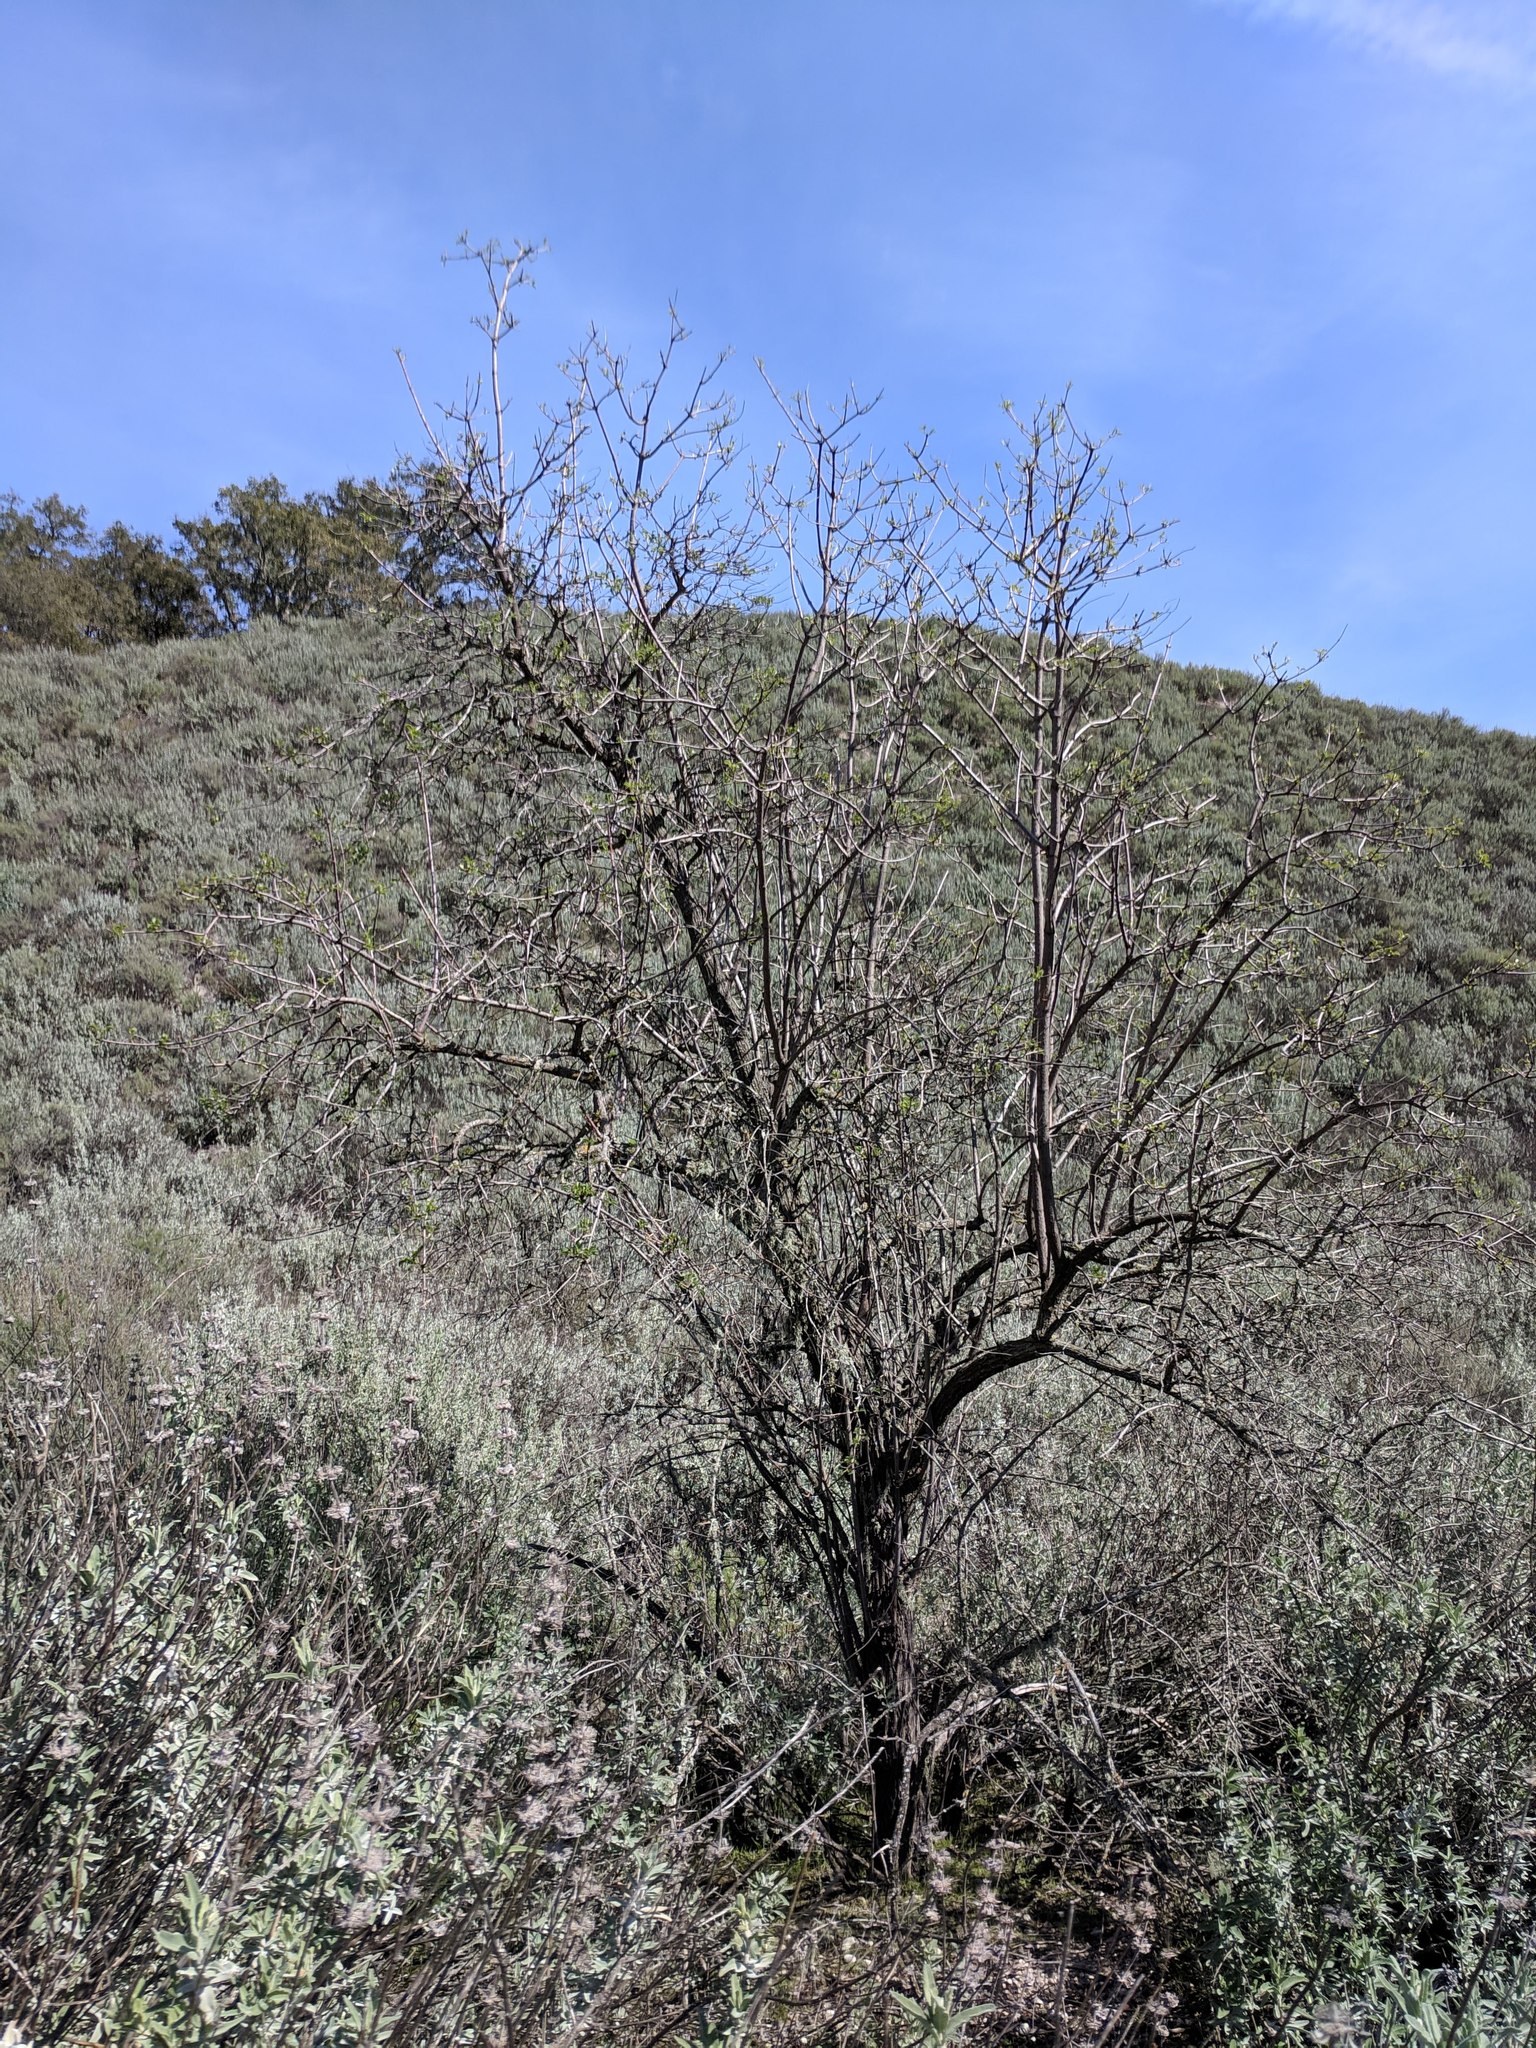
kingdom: Plantae
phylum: Tracheophyta
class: Magnoliopsida
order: Dipsacales
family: Viburnaceae
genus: Sambucus
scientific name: Sambucus cerulea
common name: Blue elder
